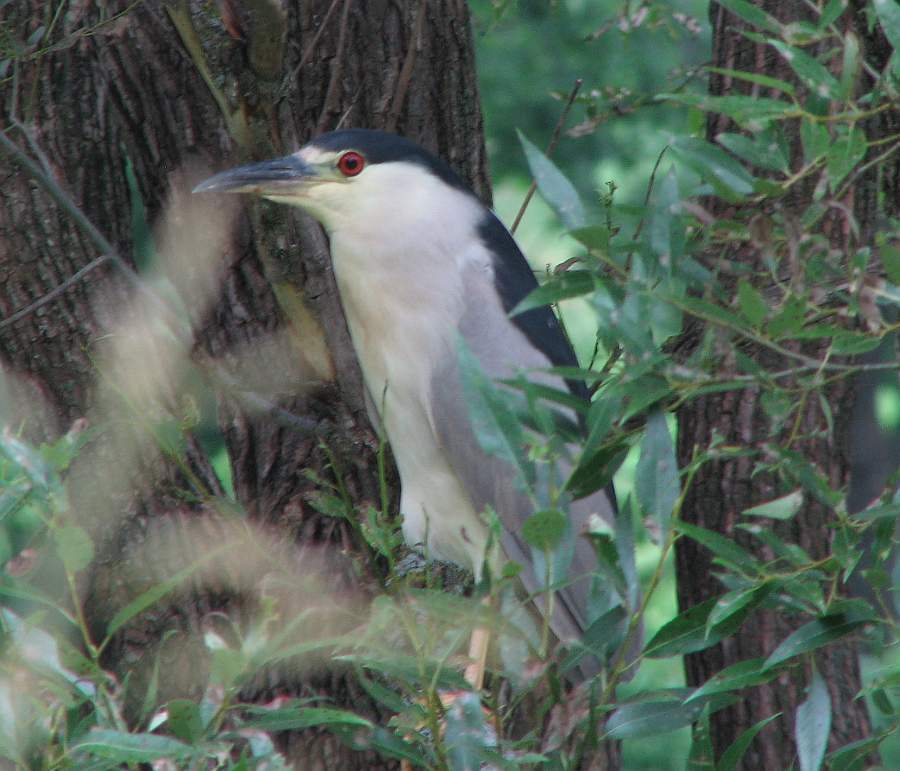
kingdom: Animalia
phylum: Chordata
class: Aves
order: Pelecaniformes
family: Ardeidae
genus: Nycticorax
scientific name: Nycticorax nycticorax
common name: Black-crowned night heron
